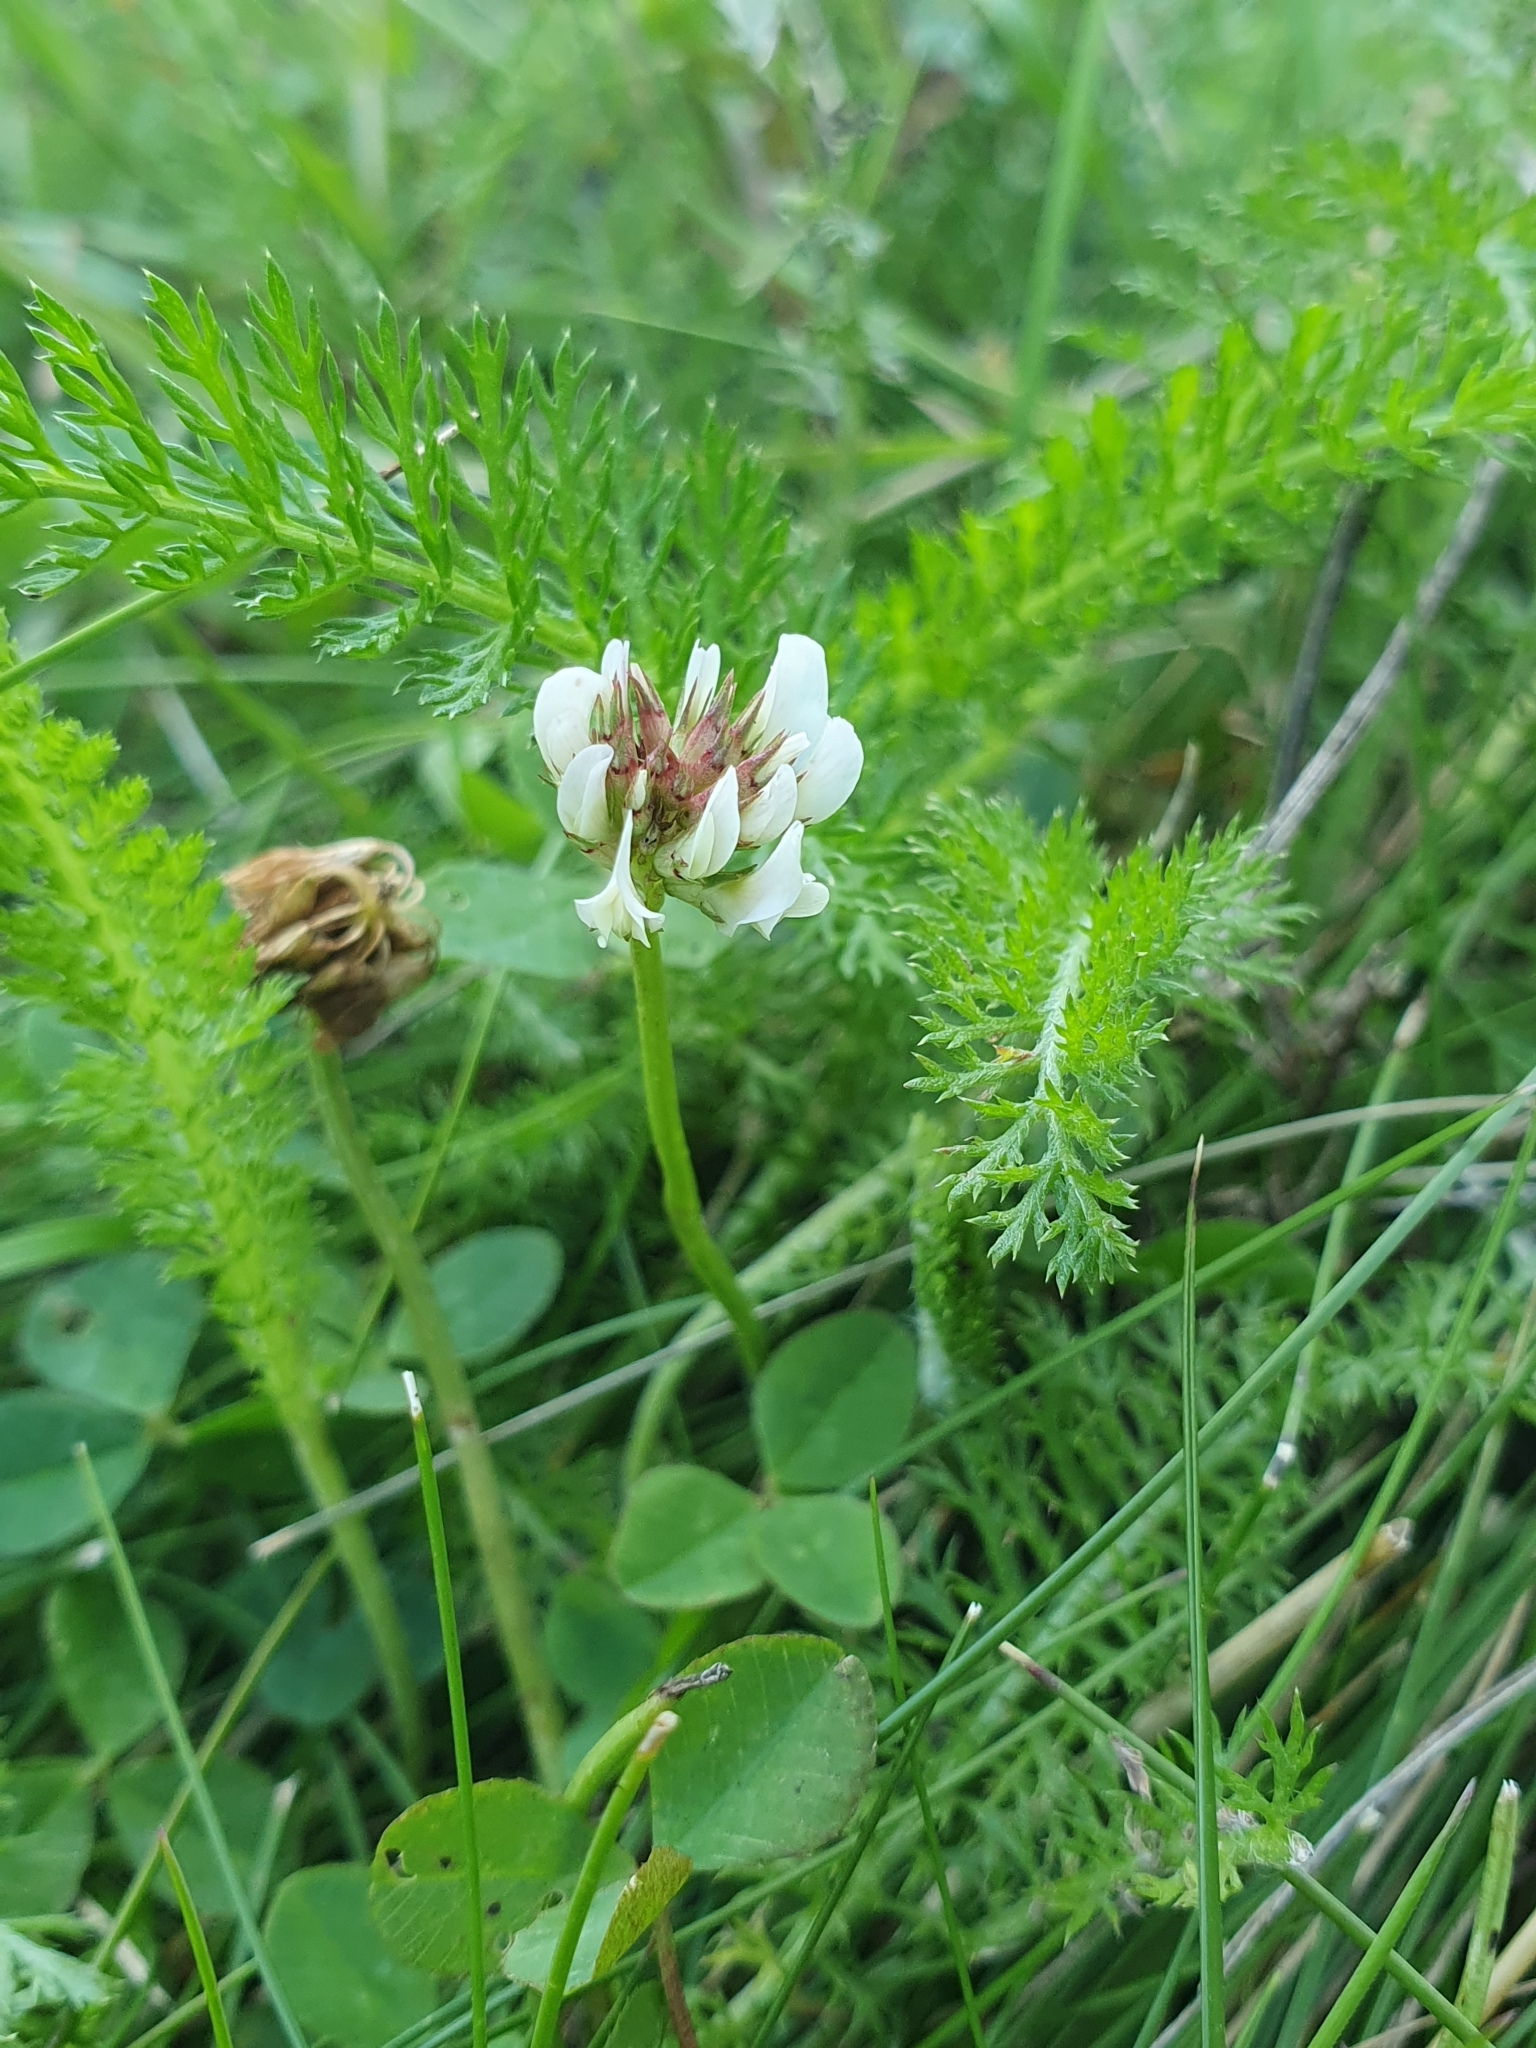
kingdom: Plantae
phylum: Tracheophyta
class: Magnoliopsida
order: Fabales
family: Fabaceae
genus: Trifolium
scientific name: Trifolium repens
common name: White clover
